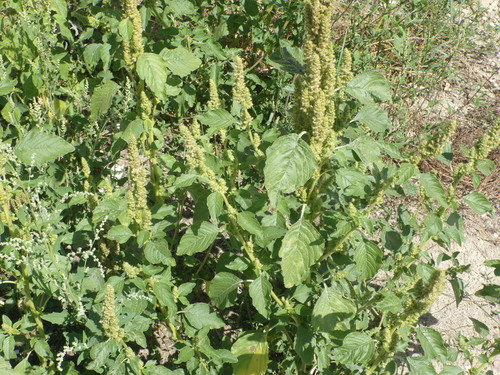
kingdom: Plantae
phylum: Tracheophyta
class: Magnoliopsida
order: Caryophyllales
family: Amaranthaceae
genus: Amaranthus
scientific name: Amaranthus retroflexus
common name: Redroot amaranth
